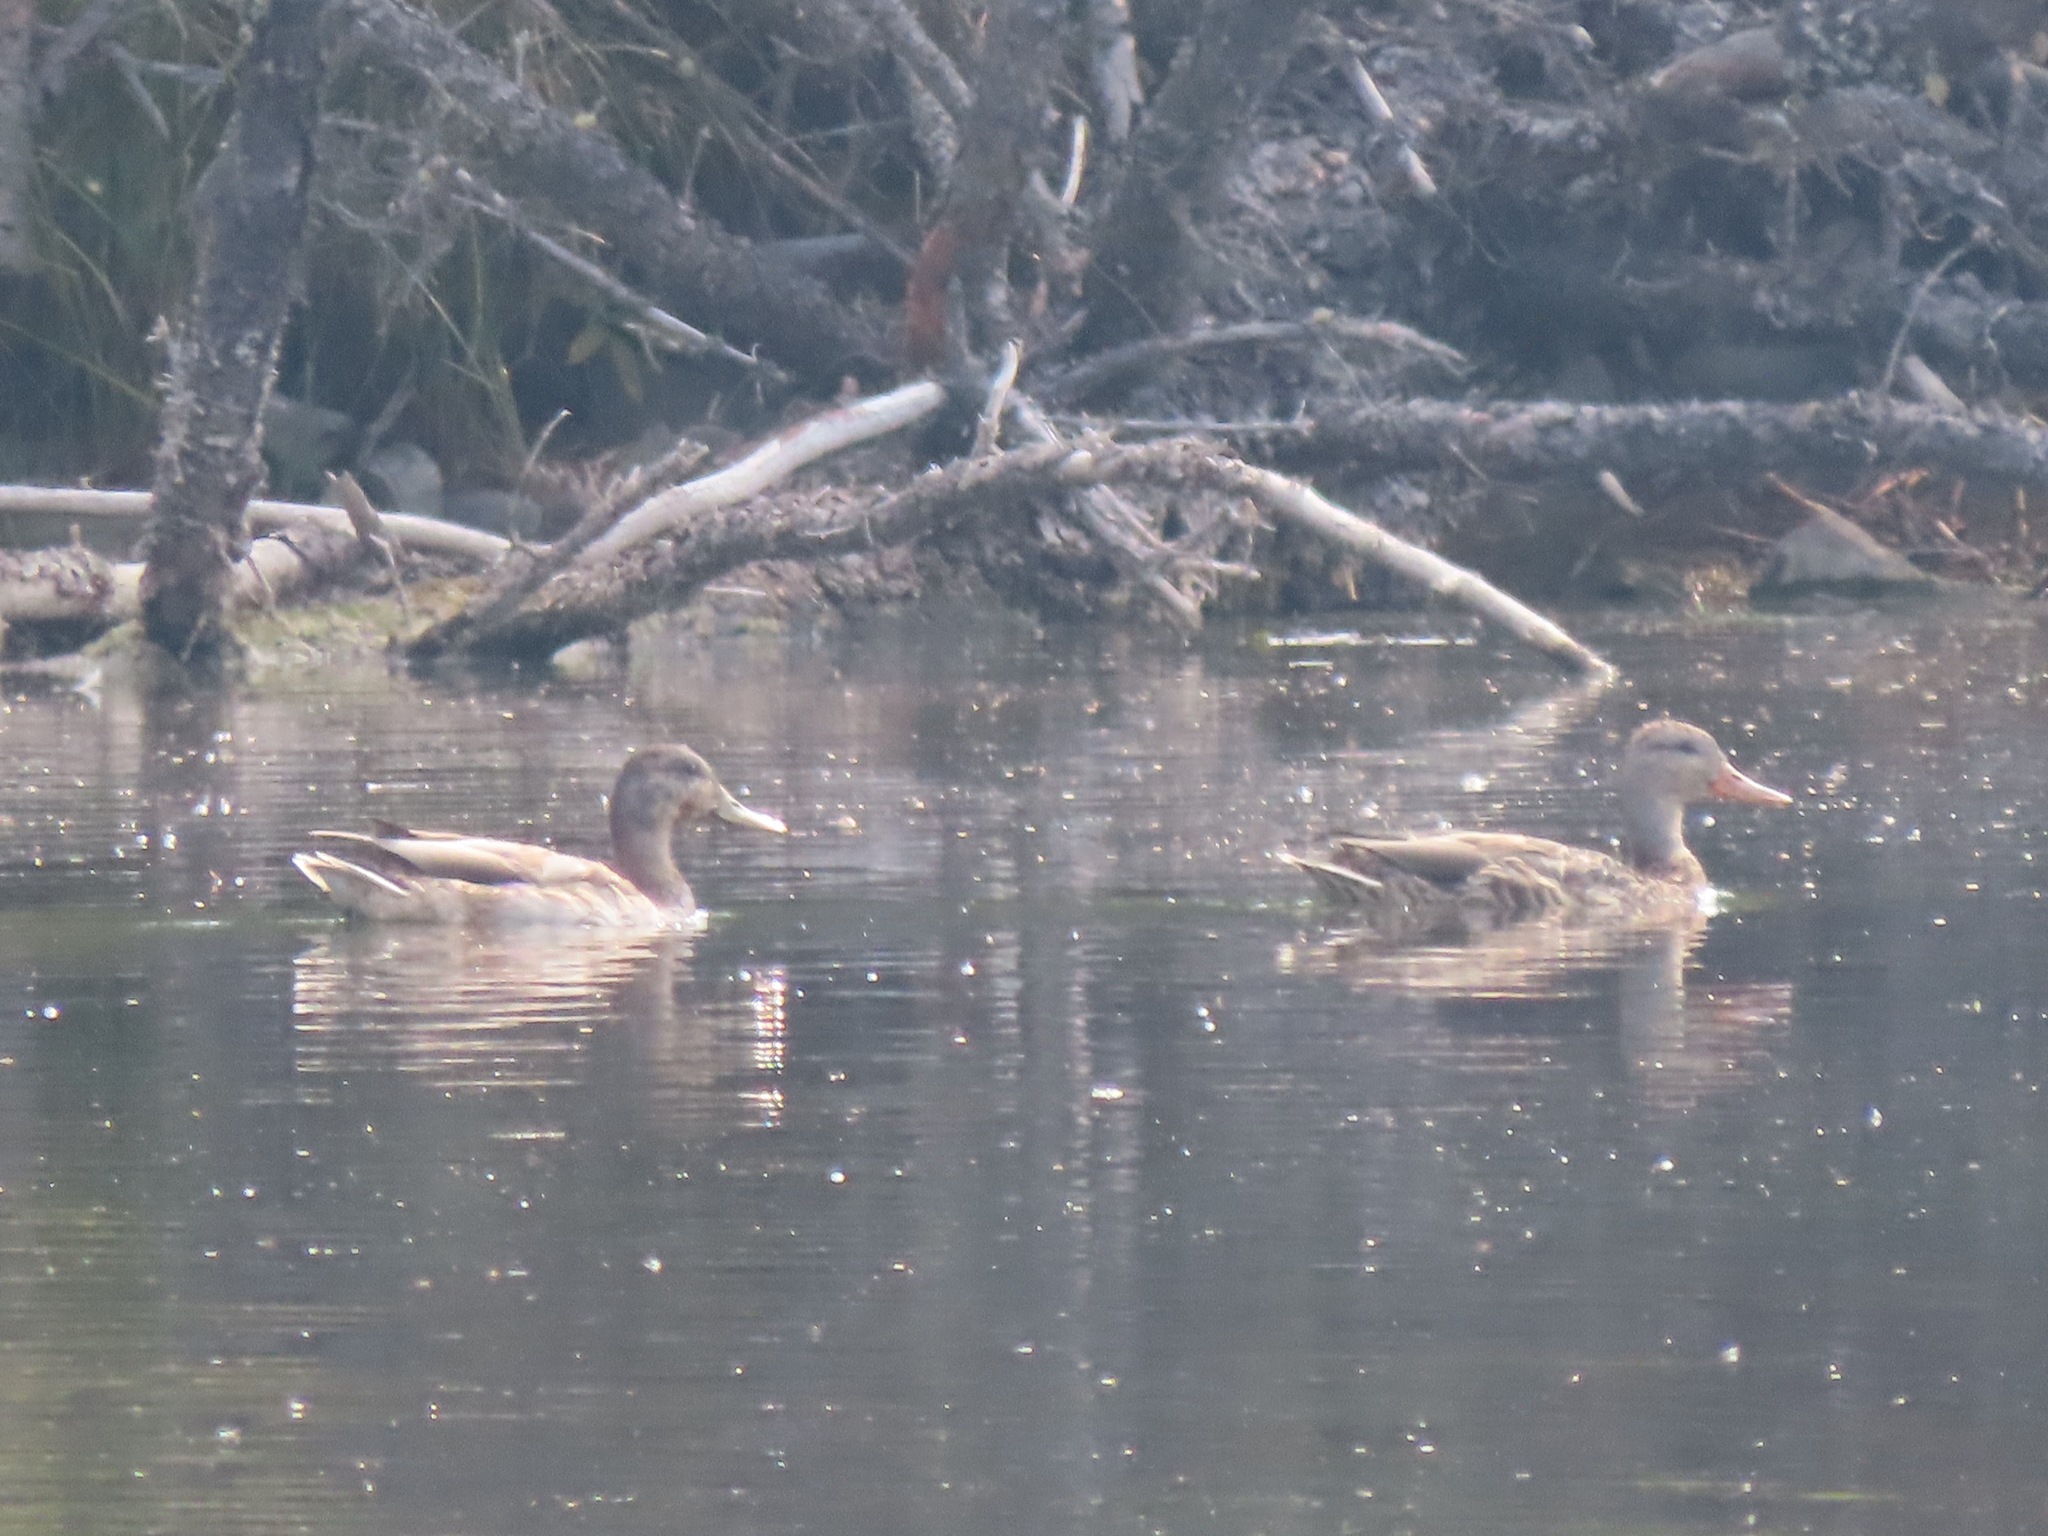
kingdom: Animalia
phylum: Chordata
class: Aves
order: Anseriformes
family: Anatidae
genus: Anas
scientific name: Anas platyrhynchos
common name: Mallard
